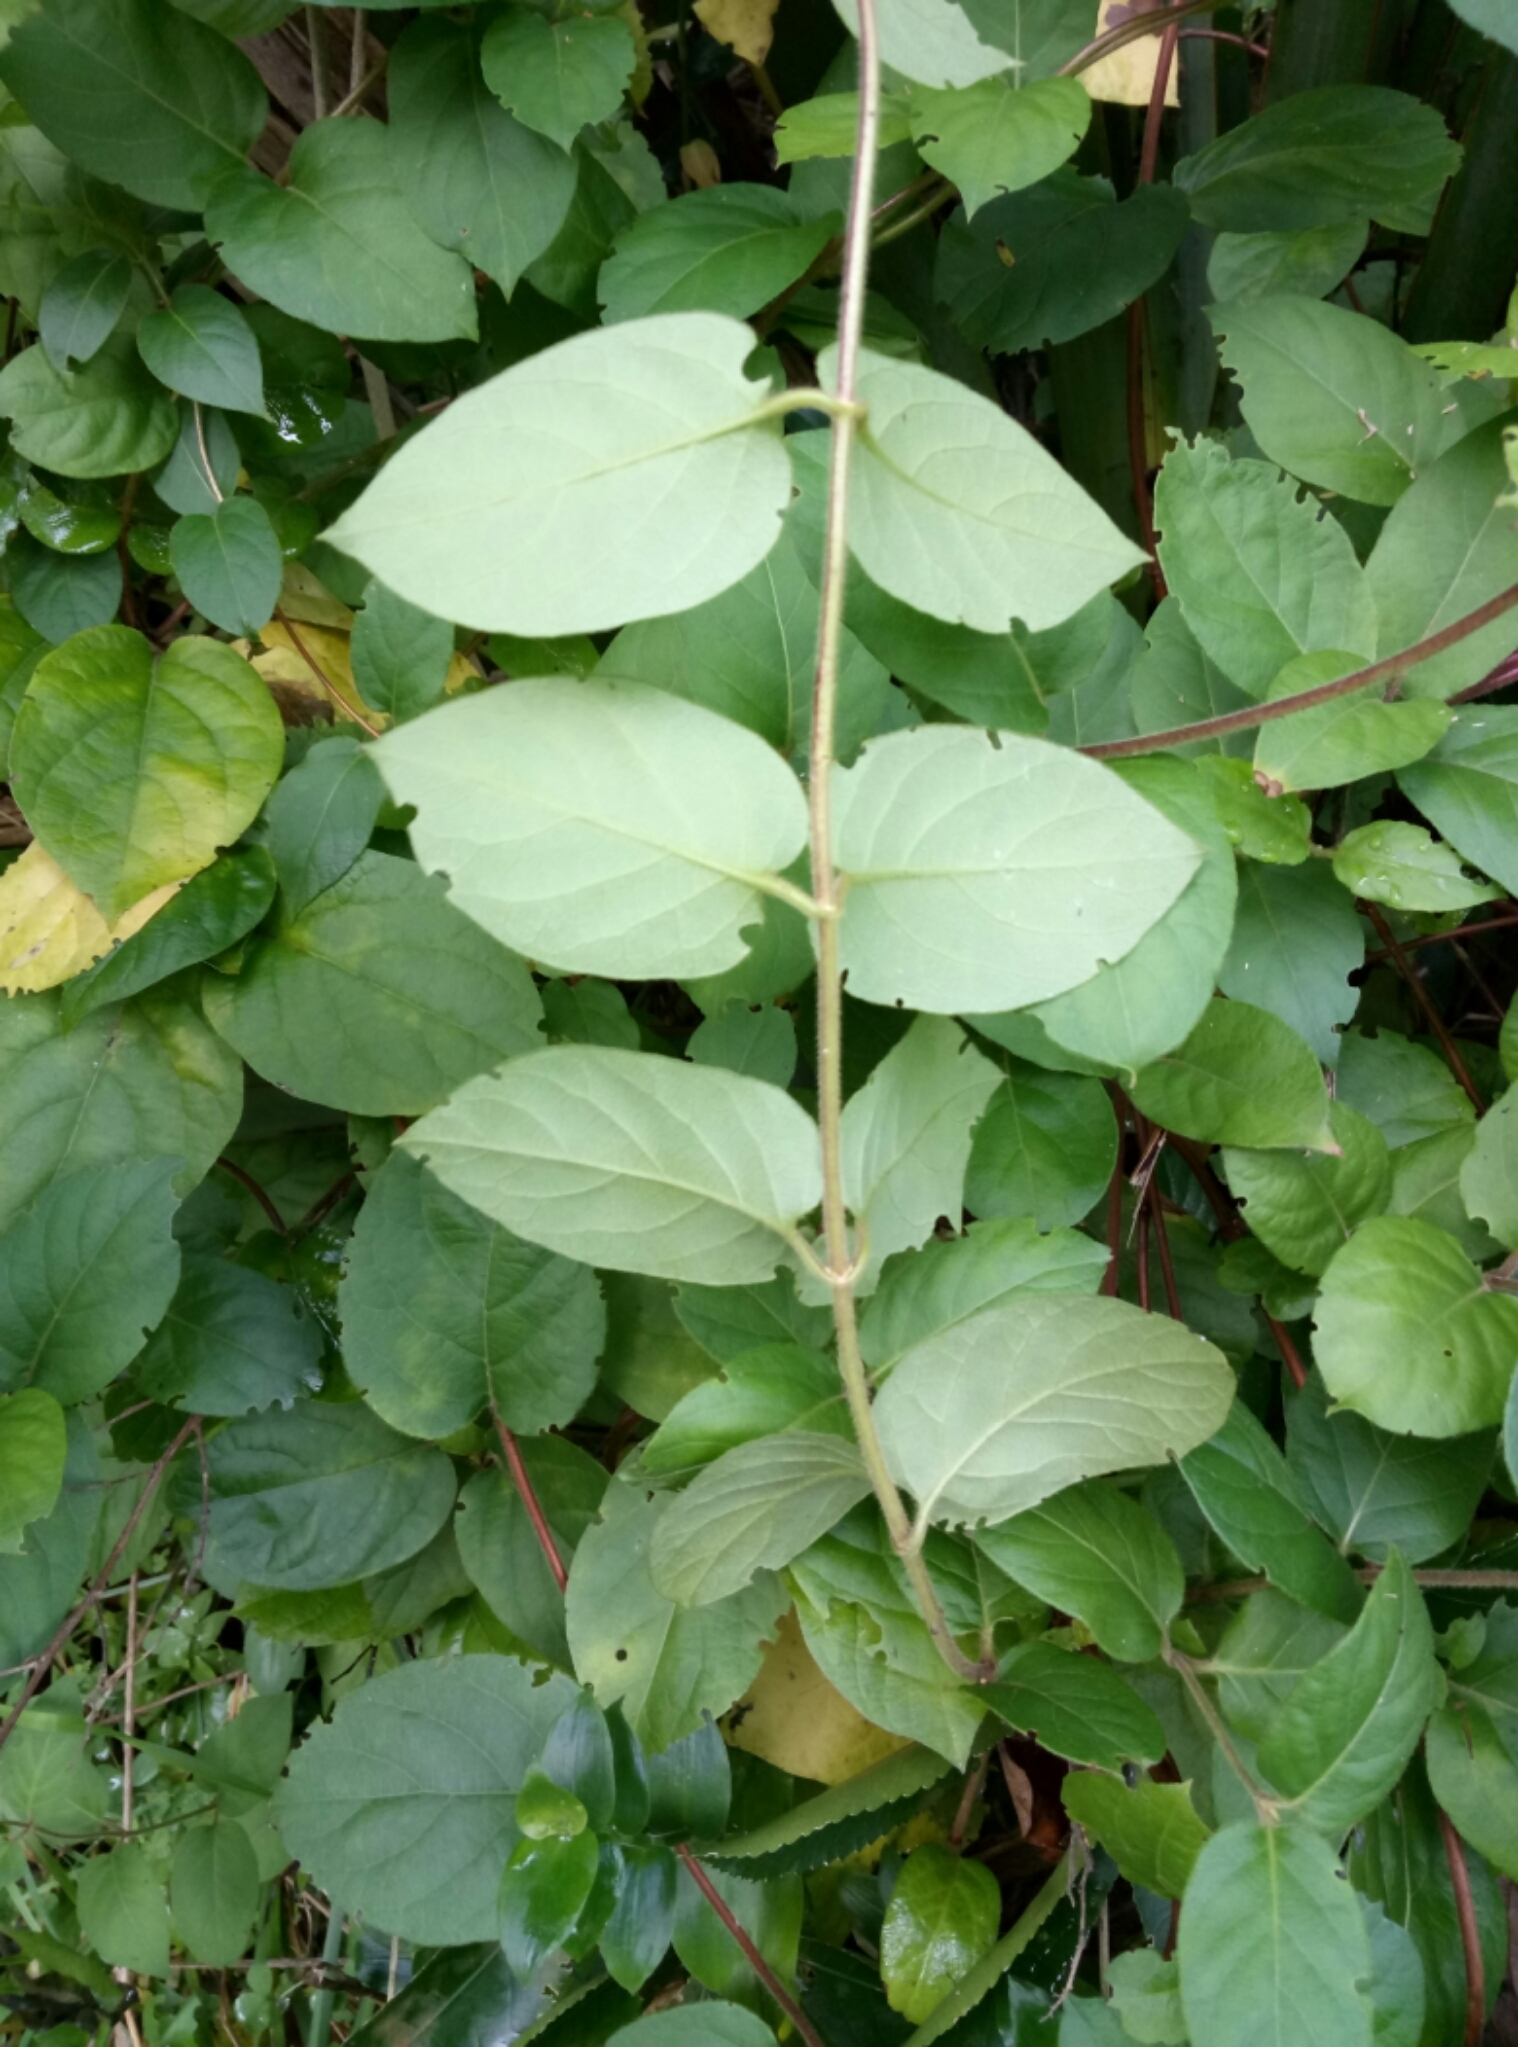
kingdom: Plantae
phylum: Tracheophyta
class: Magnoliopsida
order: Dipsacales
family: Caprifoliaceae
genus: Lonicera
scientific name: Lonicera japonica
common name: Japanese honeysuckle
